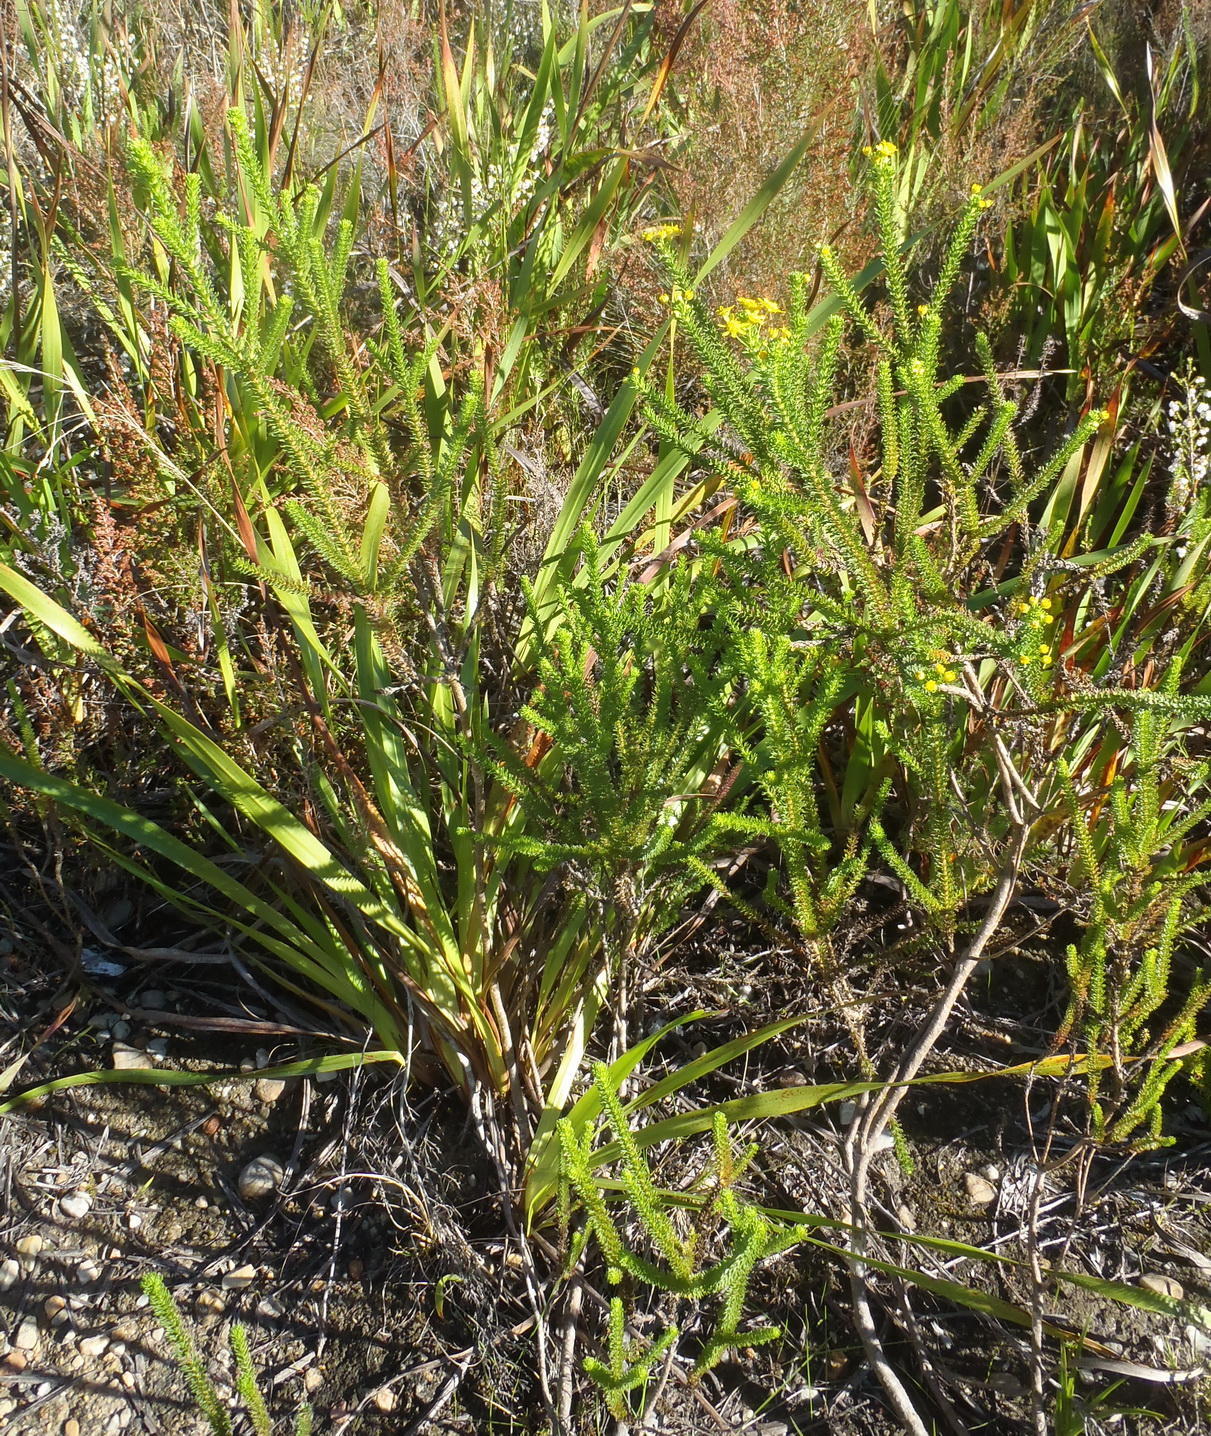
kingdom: Plantae
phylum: Tracheophyta
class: Magnoliopsida
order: Asterales
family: Asteraceae
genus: Euryops
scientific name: Euryops virgineus
